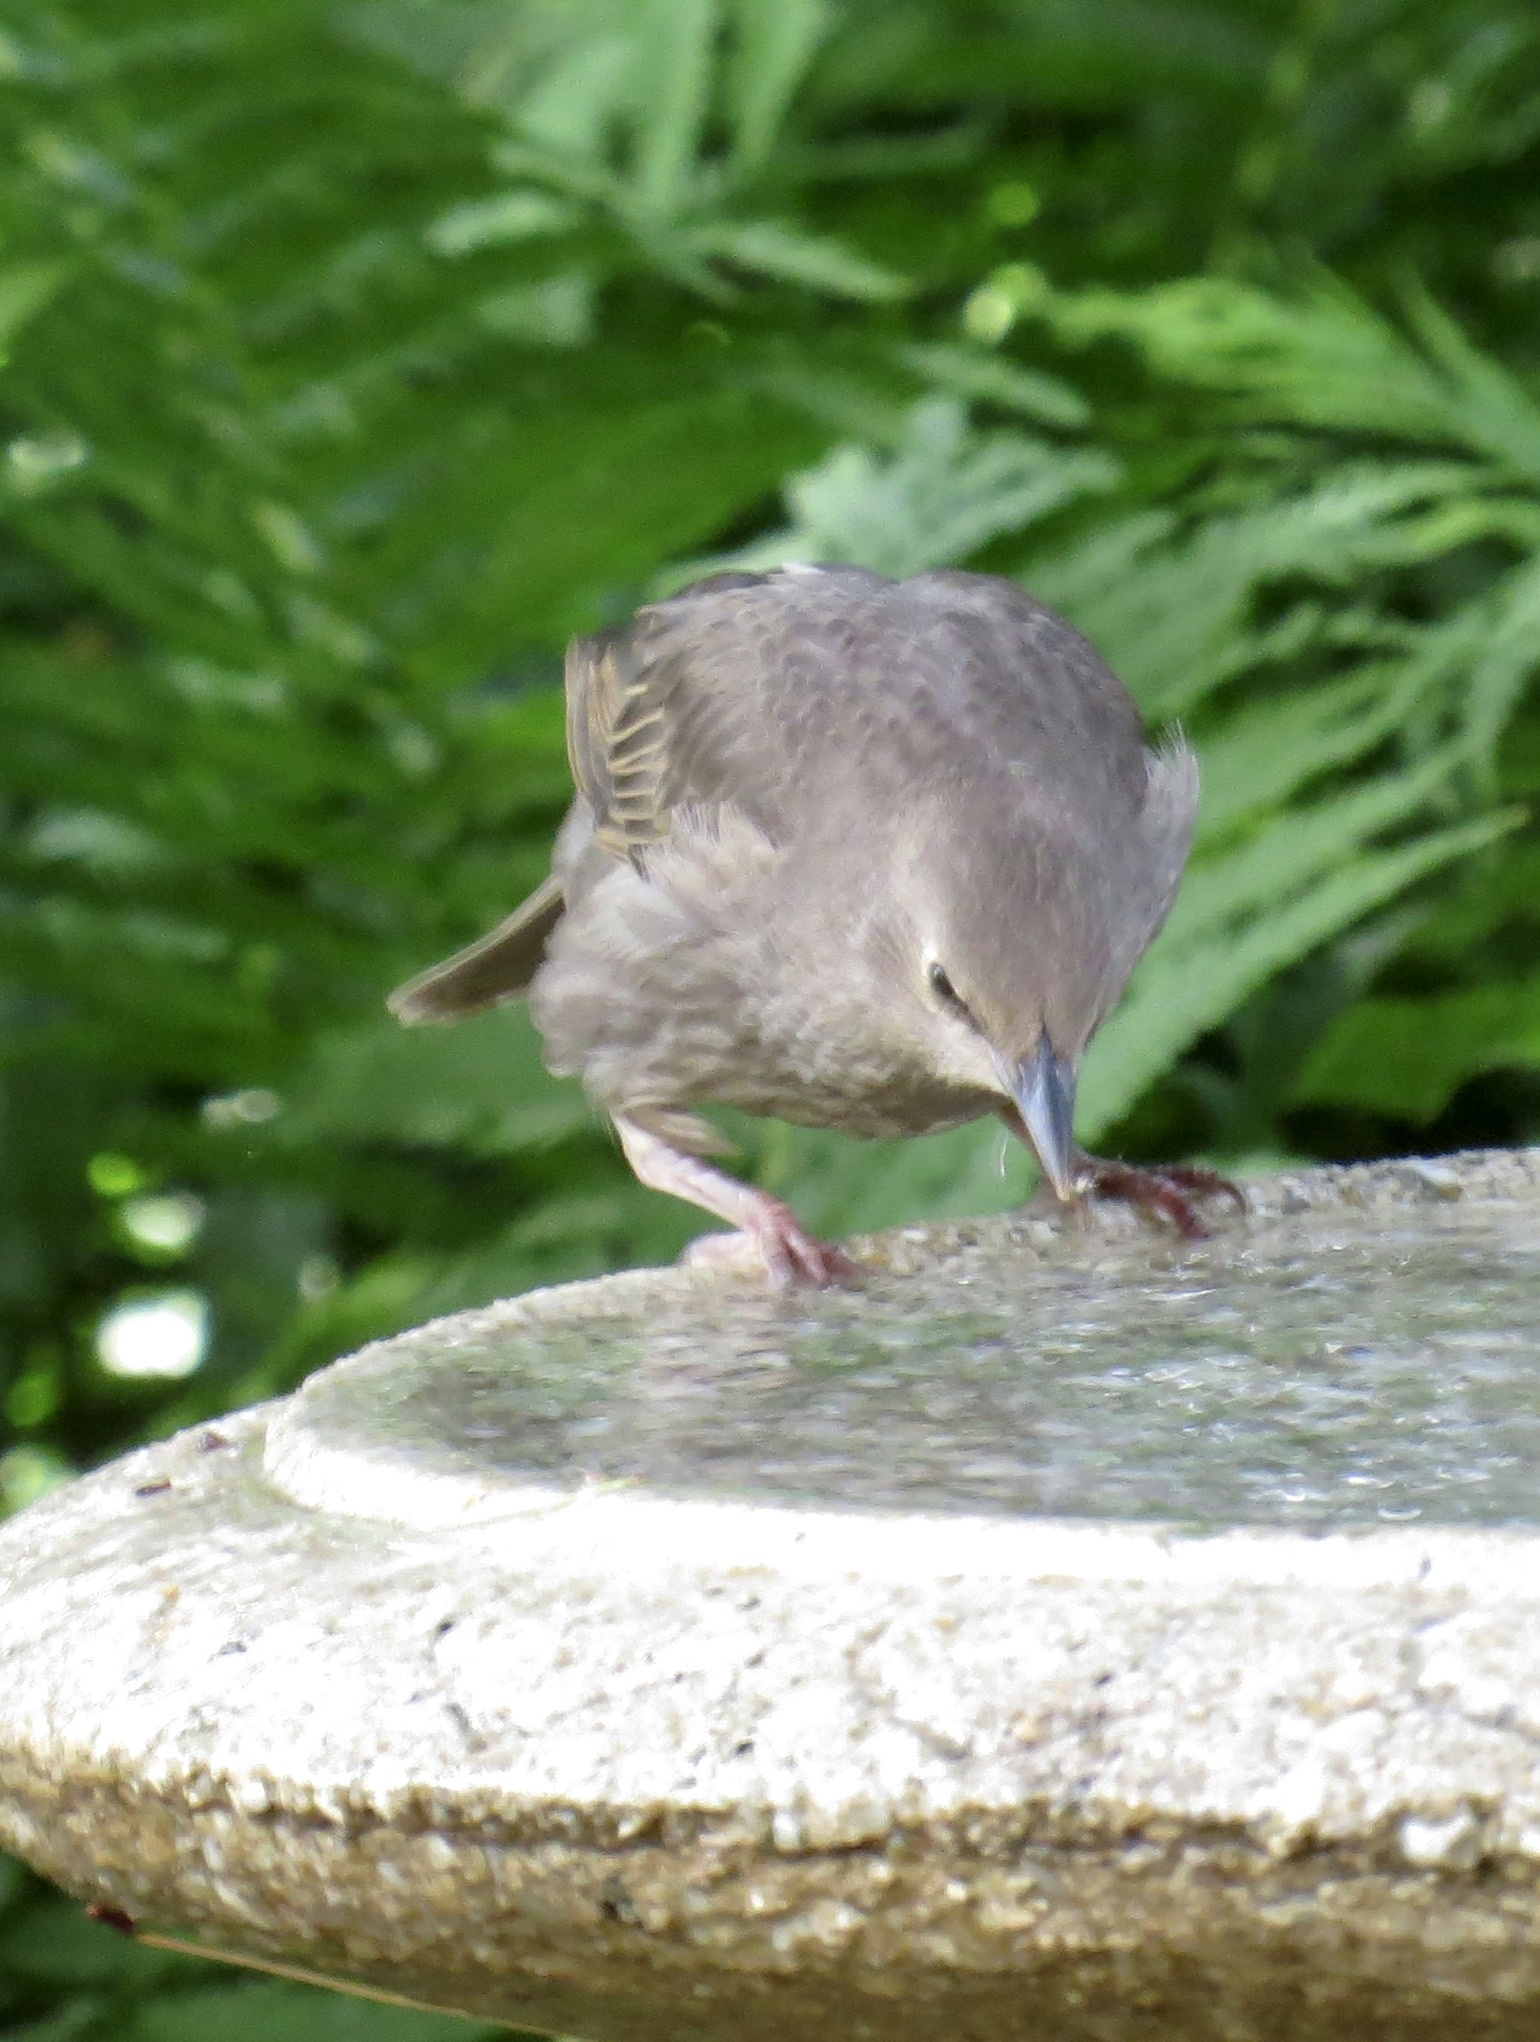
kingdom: Animalia
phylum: Chordata
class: Aves
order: Passeriformes
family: Sturnidae
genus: Sturnus
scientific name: Sturnus vulgaris
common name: Common starling
